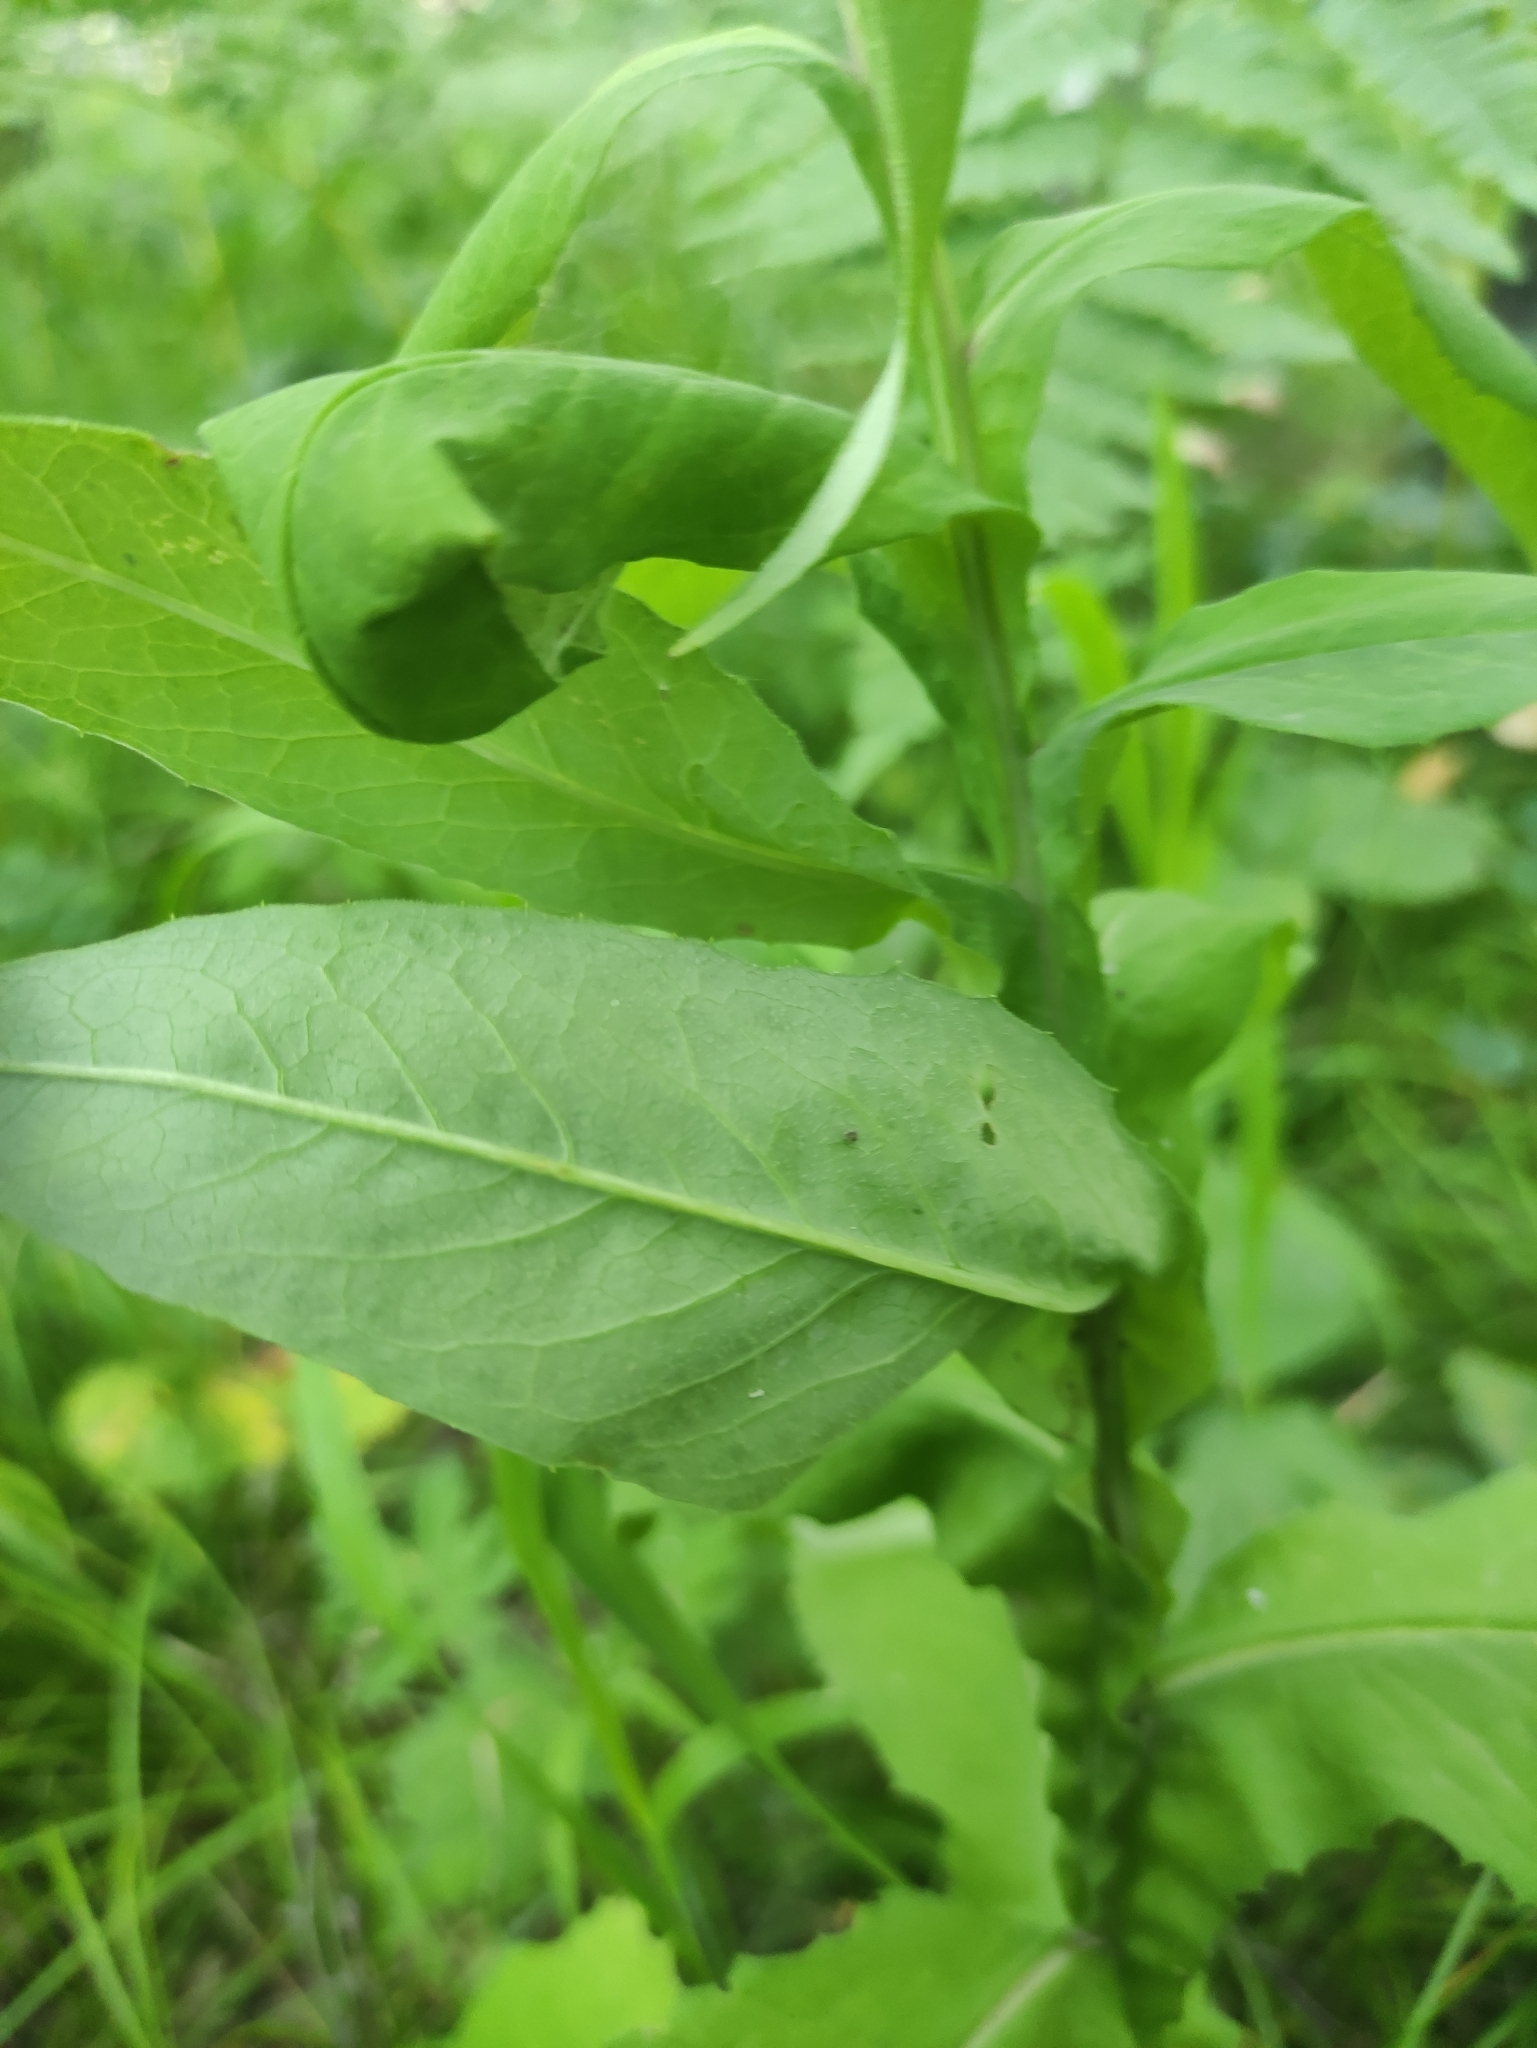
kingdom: Plantae
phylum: Tracheophyta
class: Magnoliopsida
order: Asterales
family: Asteraceae
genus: Saussurea
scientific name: Saussurea parviflora
